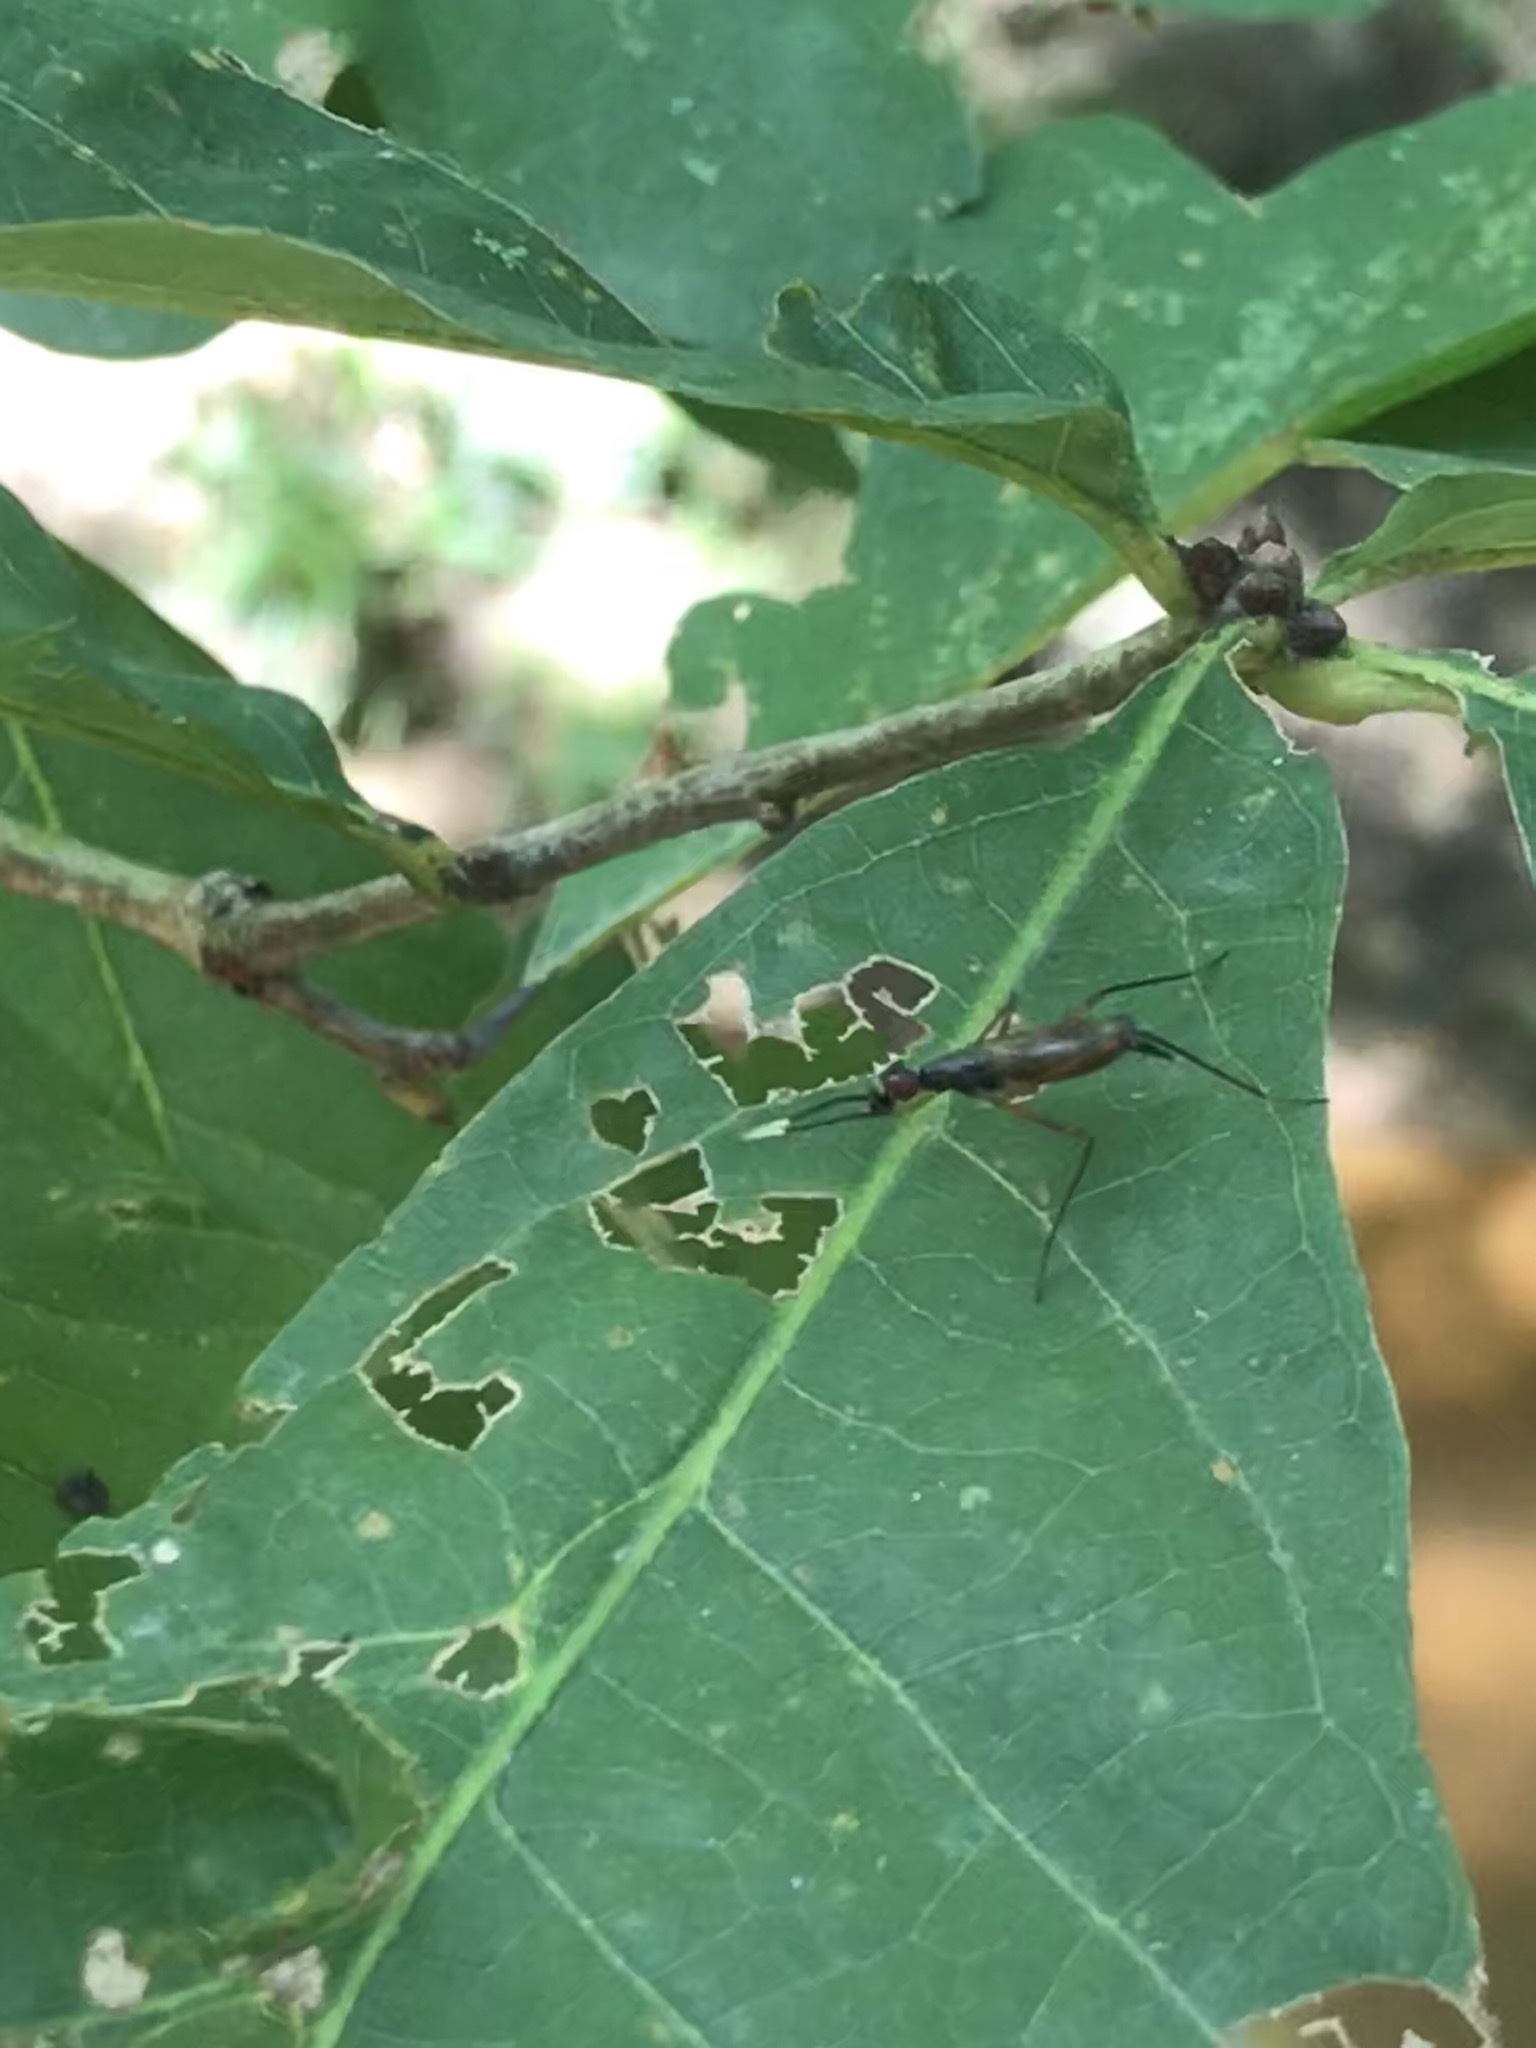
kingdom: Animalia
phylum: Arthropoda
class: Insecta
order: Diptera
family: Micropezidae
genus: Rainieria
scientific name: Rainieria antennaepes
